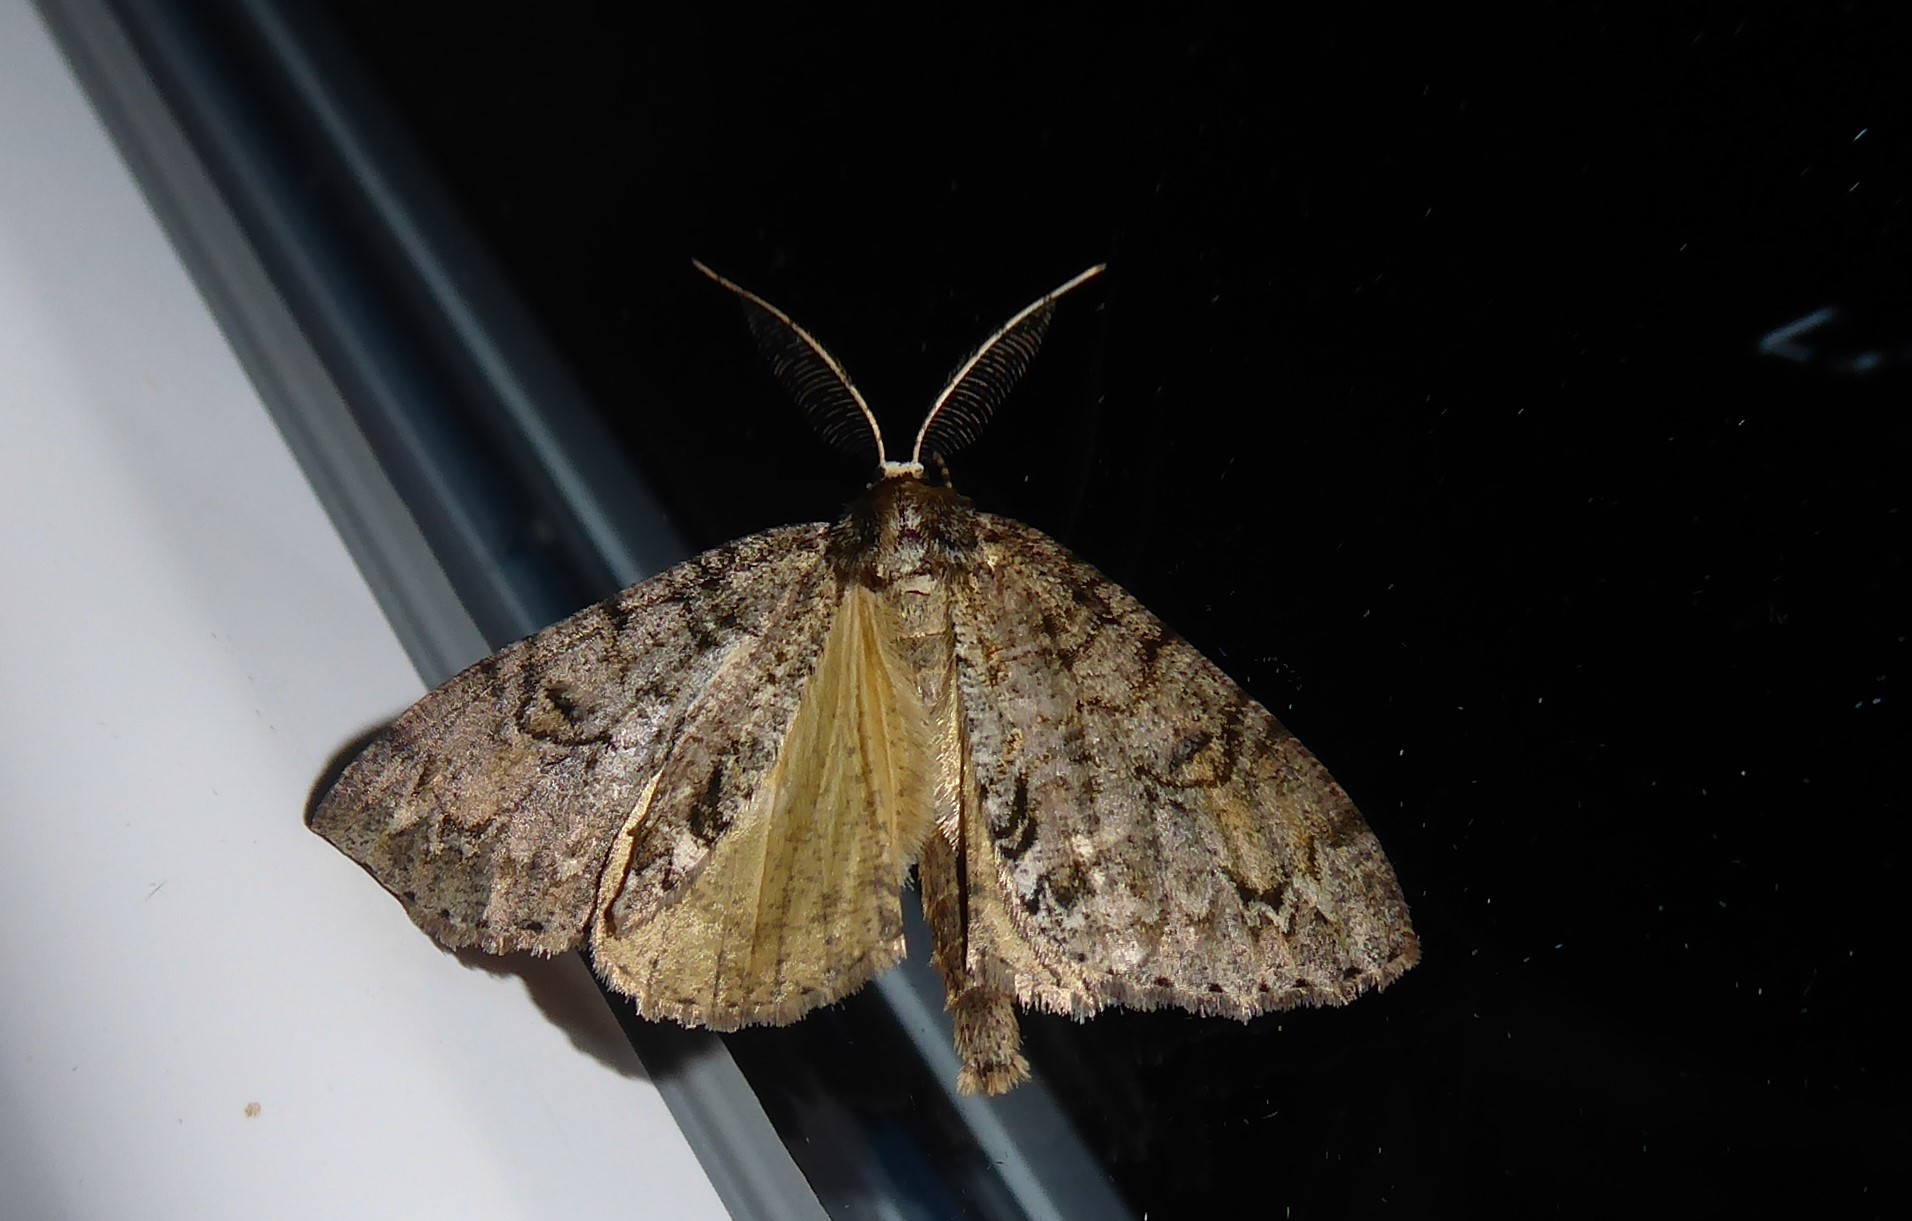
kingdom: Animalia
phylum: Arthropoda
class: Insecta
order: Lepidoptera
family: Geometridae
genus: Pseudocoremia
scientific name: Pseudocoremia suavis
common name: Common forest looper
